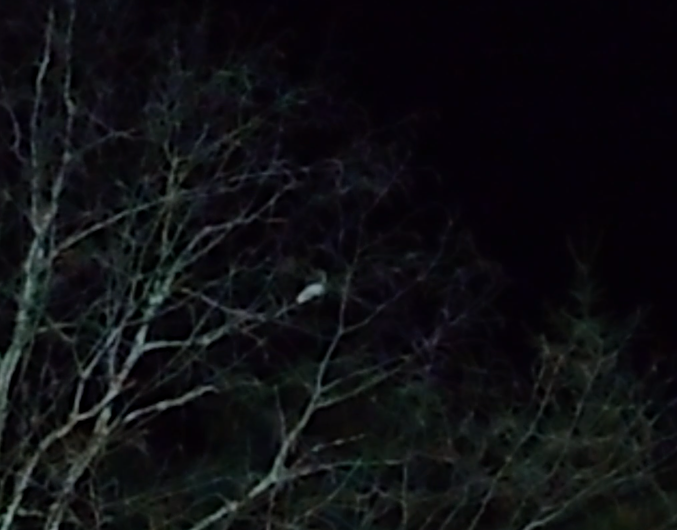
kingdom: Animalia
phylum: Chordata
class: Mammalia
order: Rodentia
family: Sciuridae
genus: Pteromys
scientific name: Pteromys volans
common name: Siberian flying squirrel
